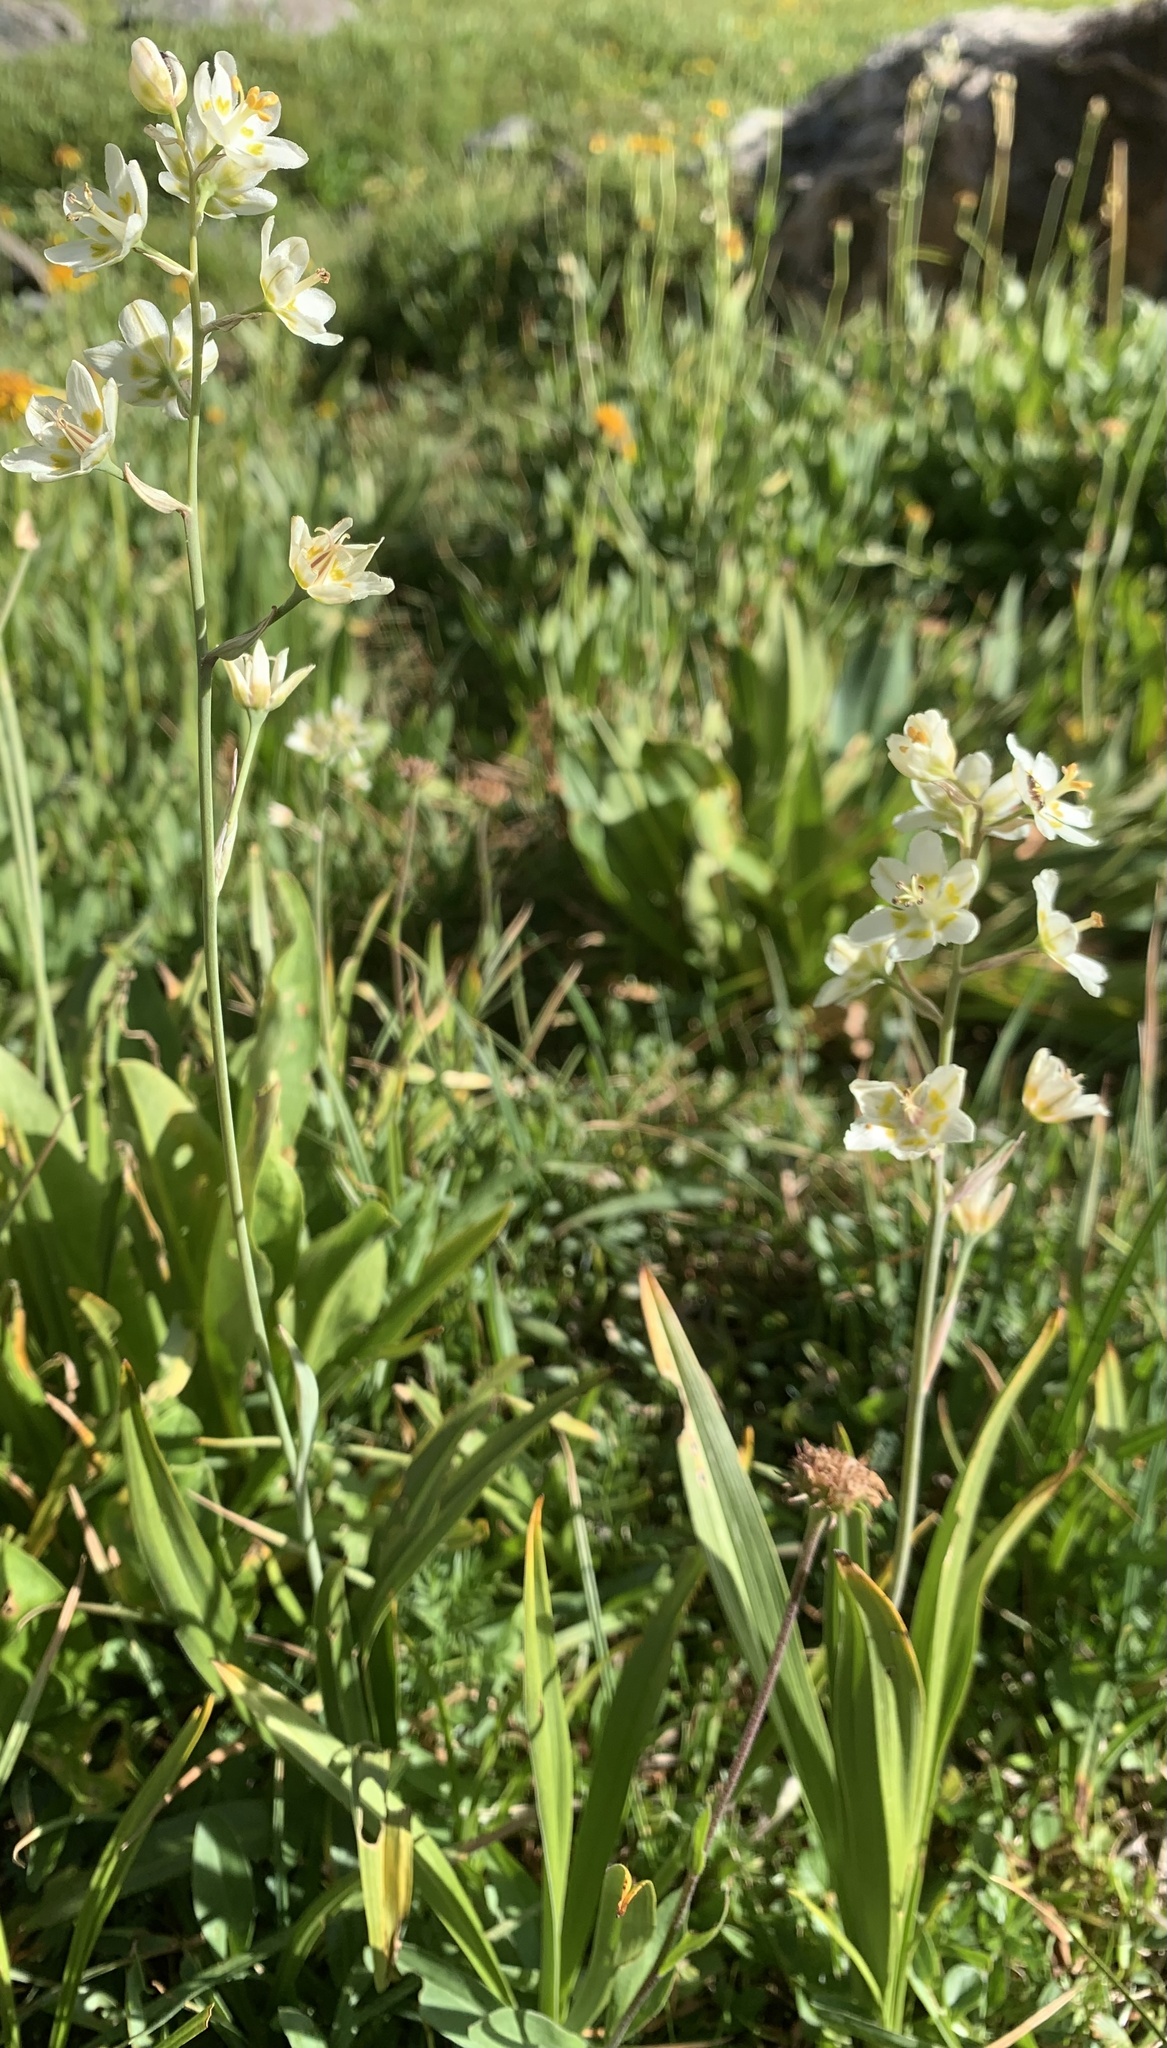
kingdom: Plantae
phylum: Tracheophyta
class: Liliopsida
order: Liliales
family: Melanthiaceae
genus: Anticlea
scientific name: Anticlea elegans
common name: Mountain death camas
